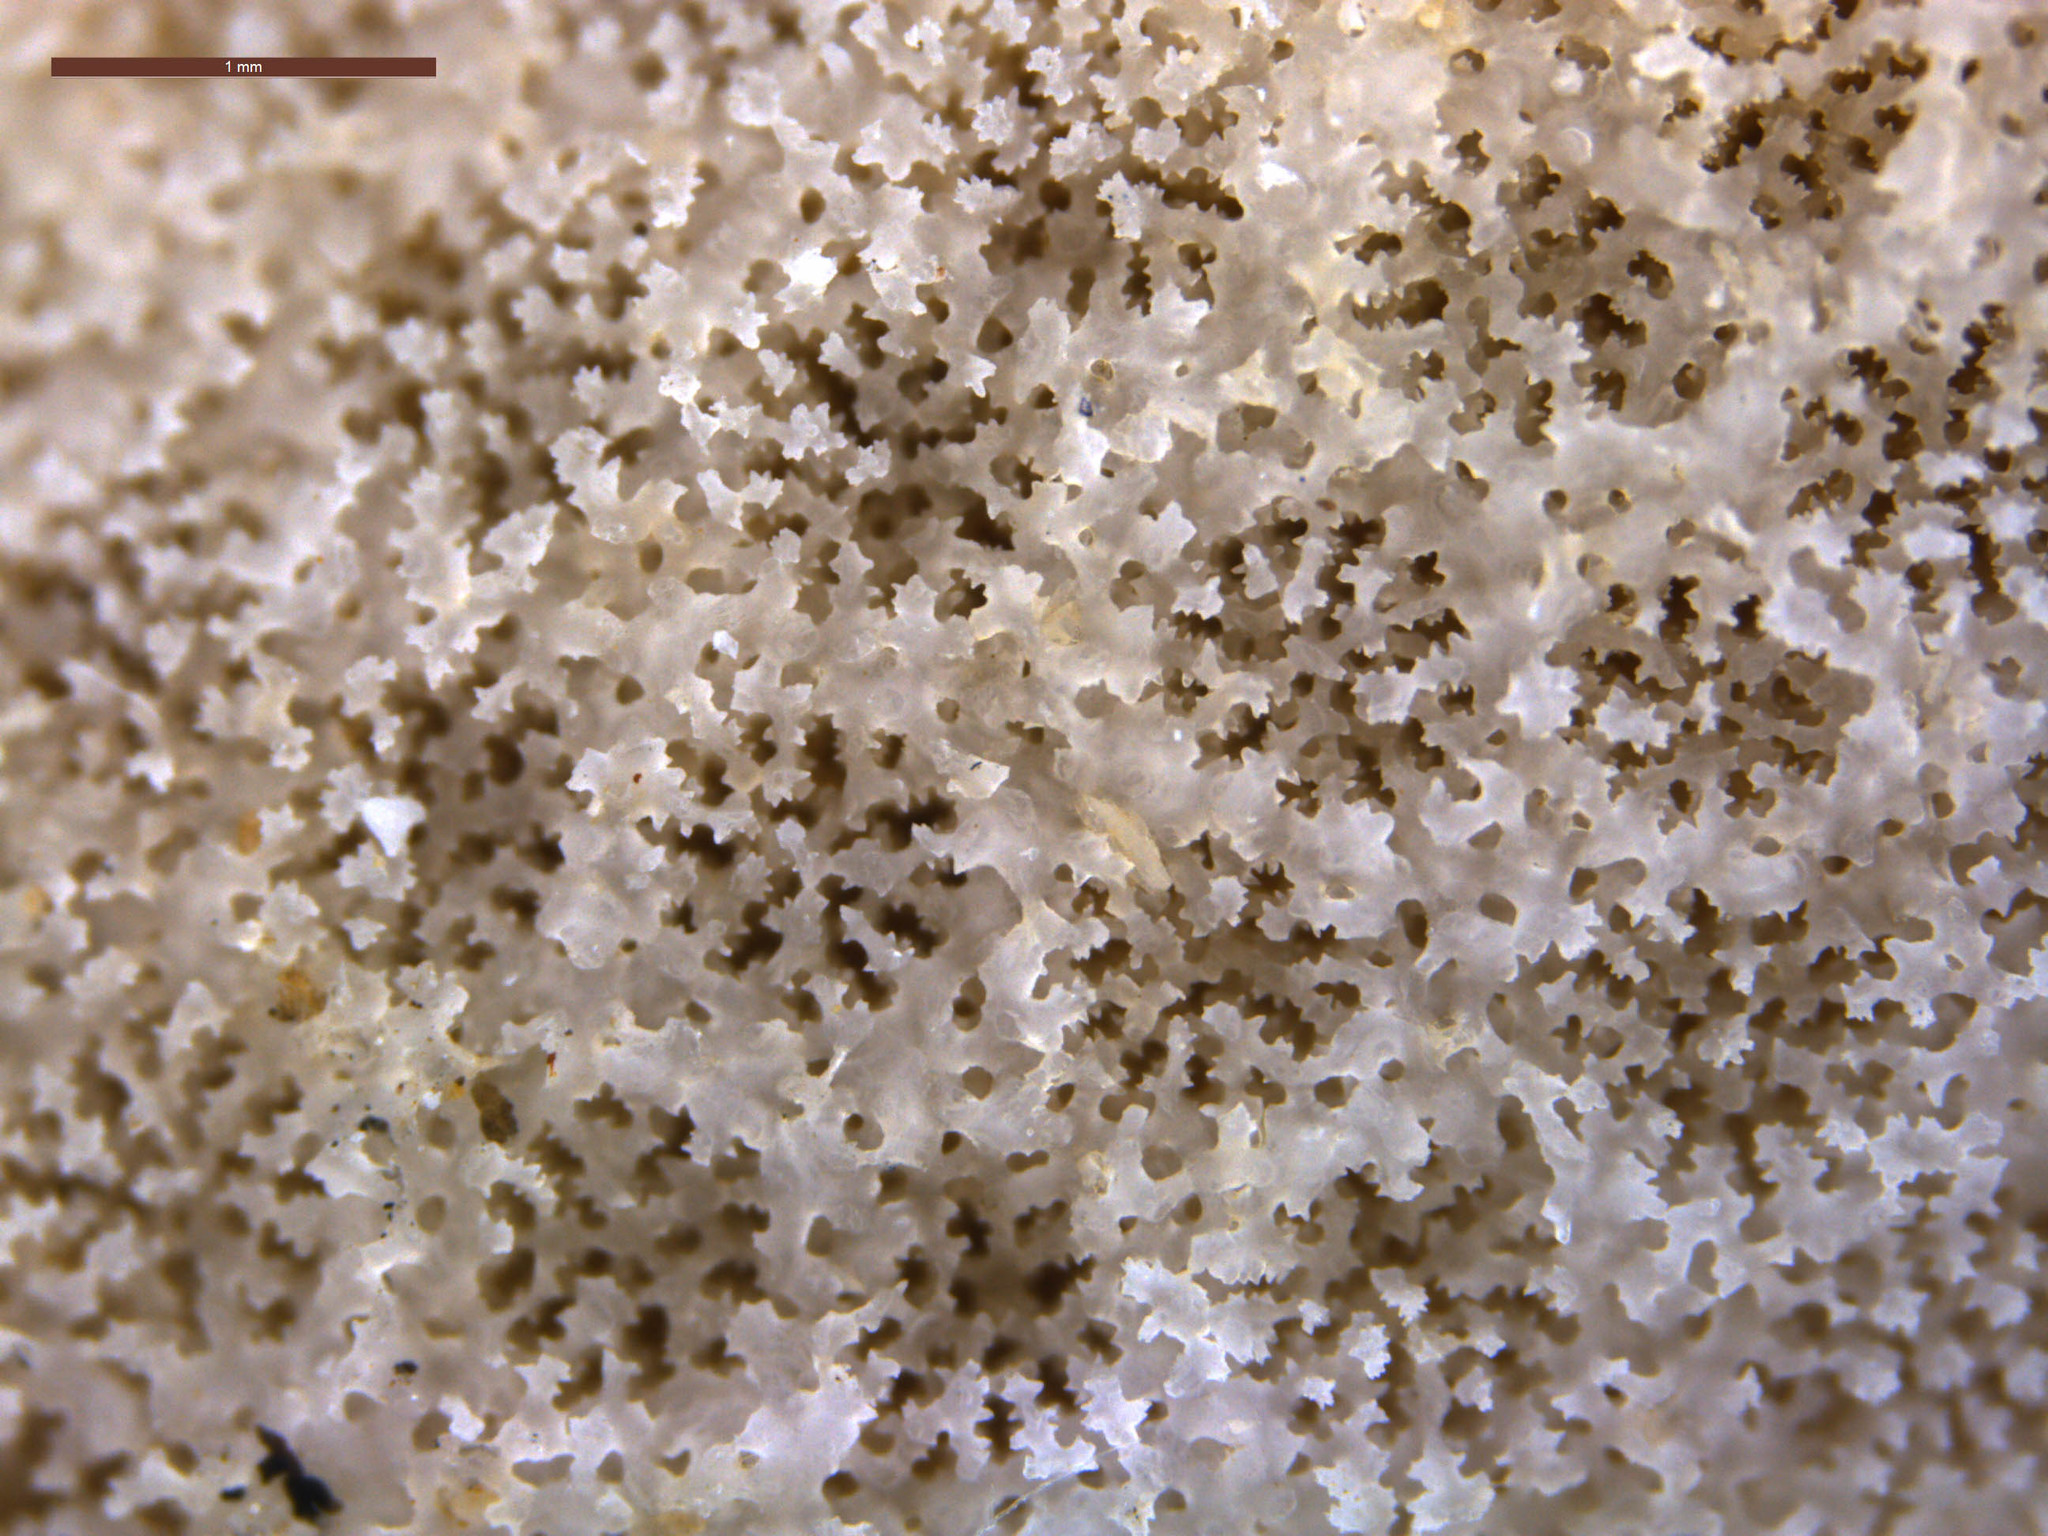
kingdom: Animalia
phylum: Cnidaria
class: Anthozoa
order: Scleractinia
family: Poritidae
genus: Porites
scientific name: Porites cylindrica
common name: Hump coral
